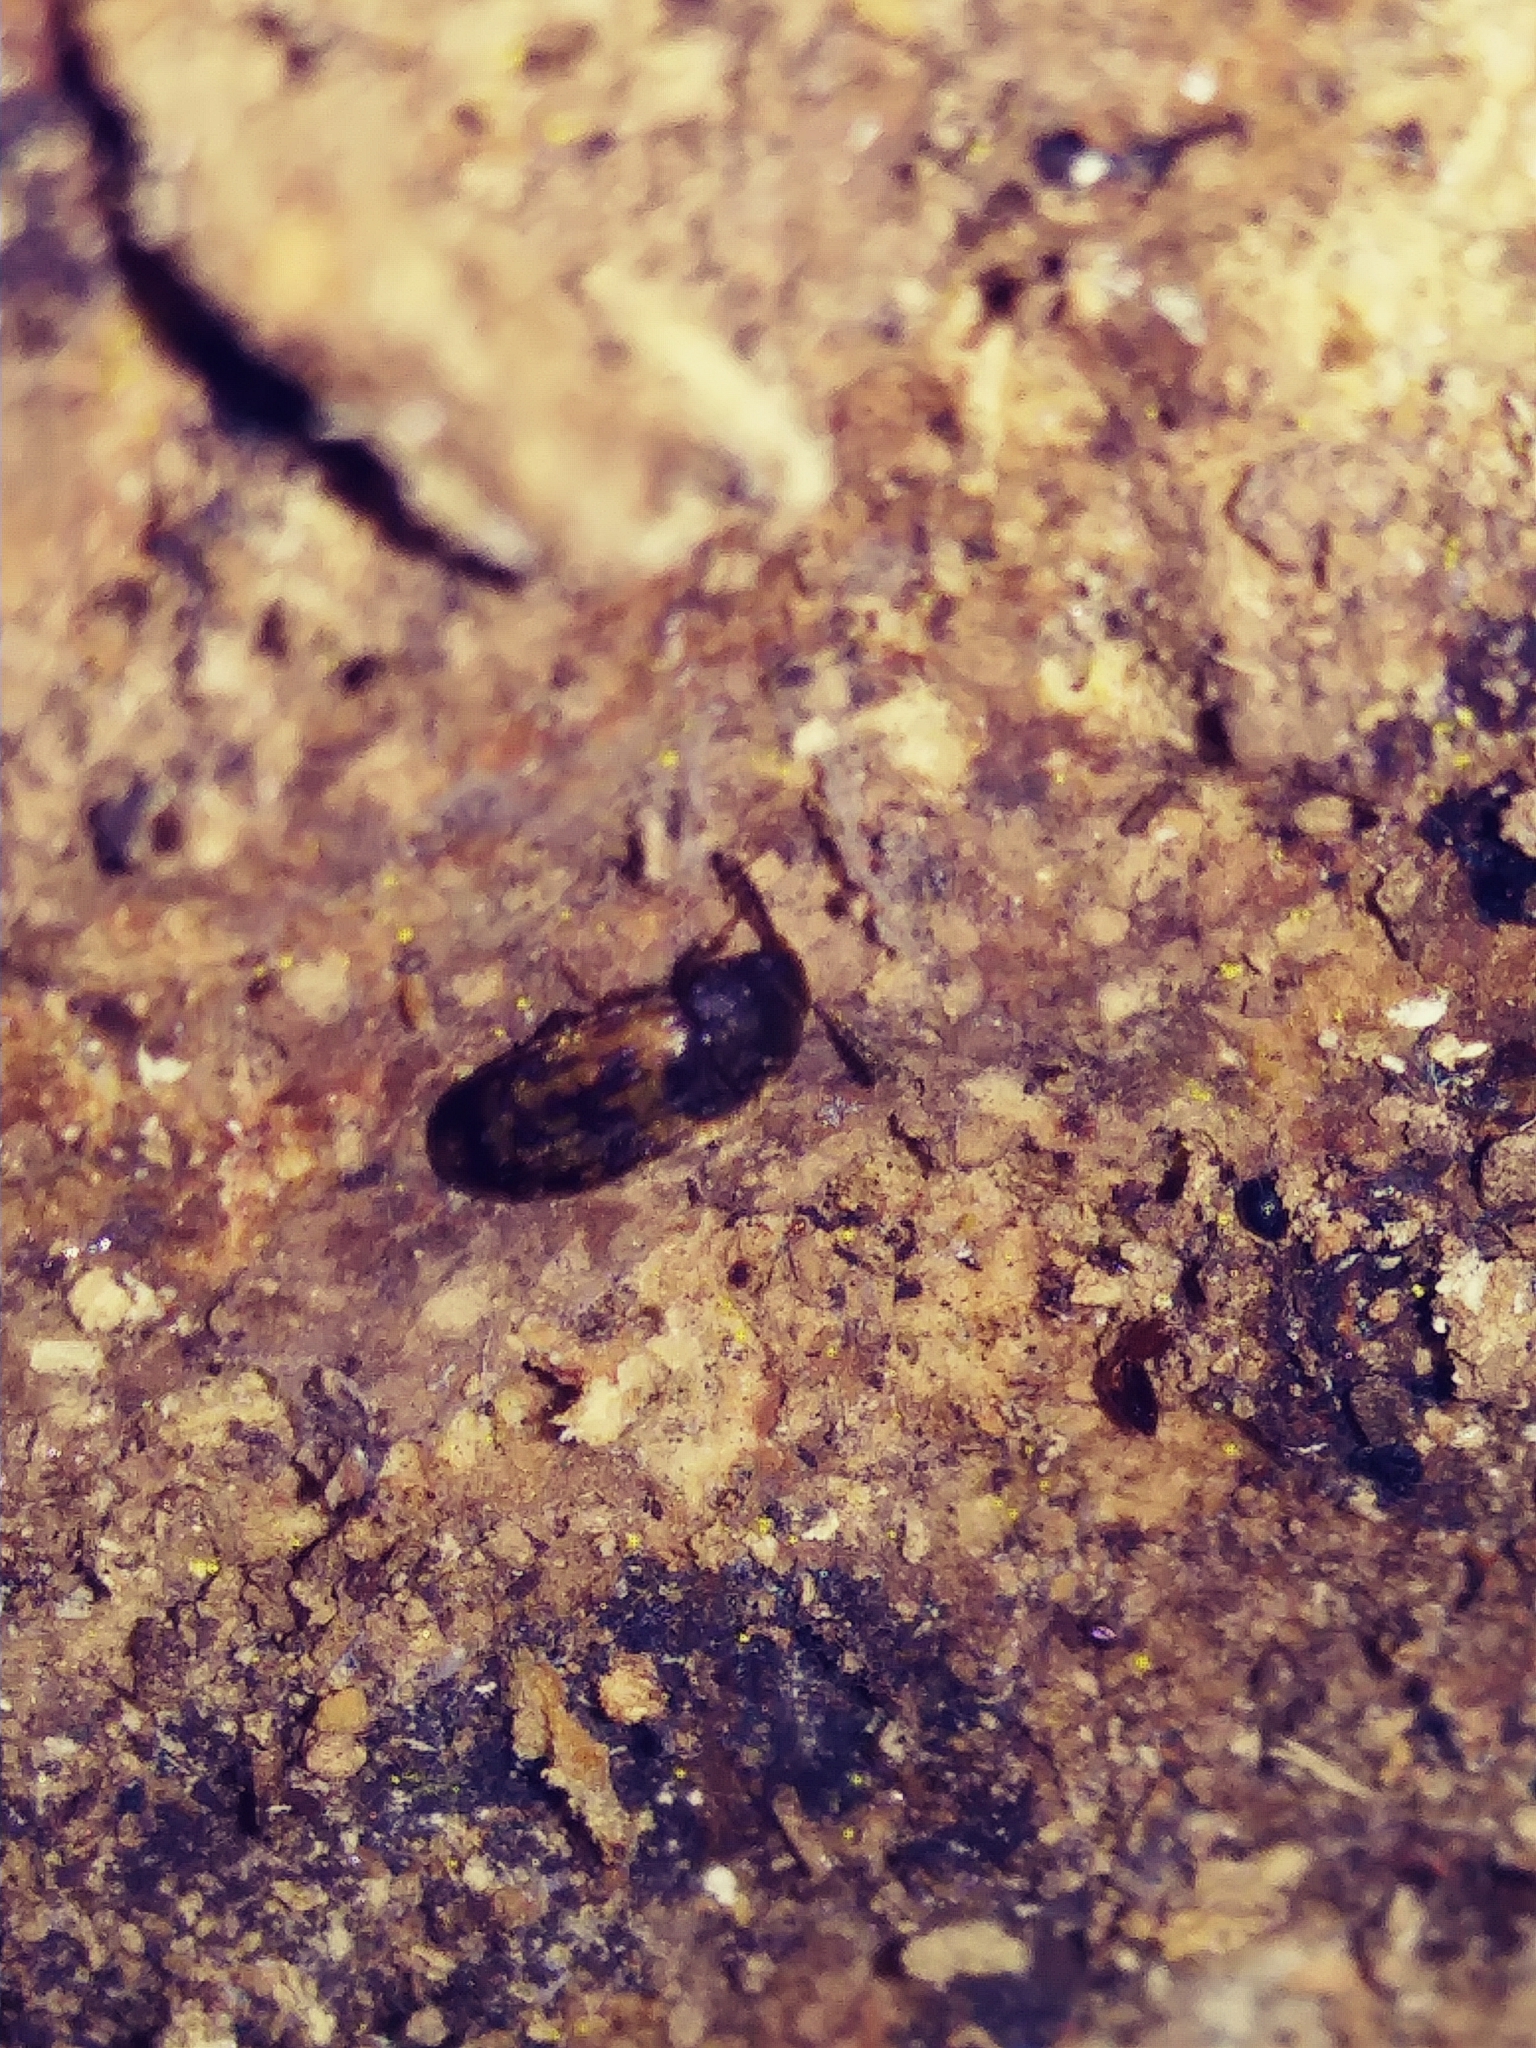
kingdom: Animalia
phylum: Arthropoda
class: Insecta
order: Coleoptera
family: Mycetophagidae
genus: Mycetophagus
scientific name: Mycetophagus pluripunctatus
